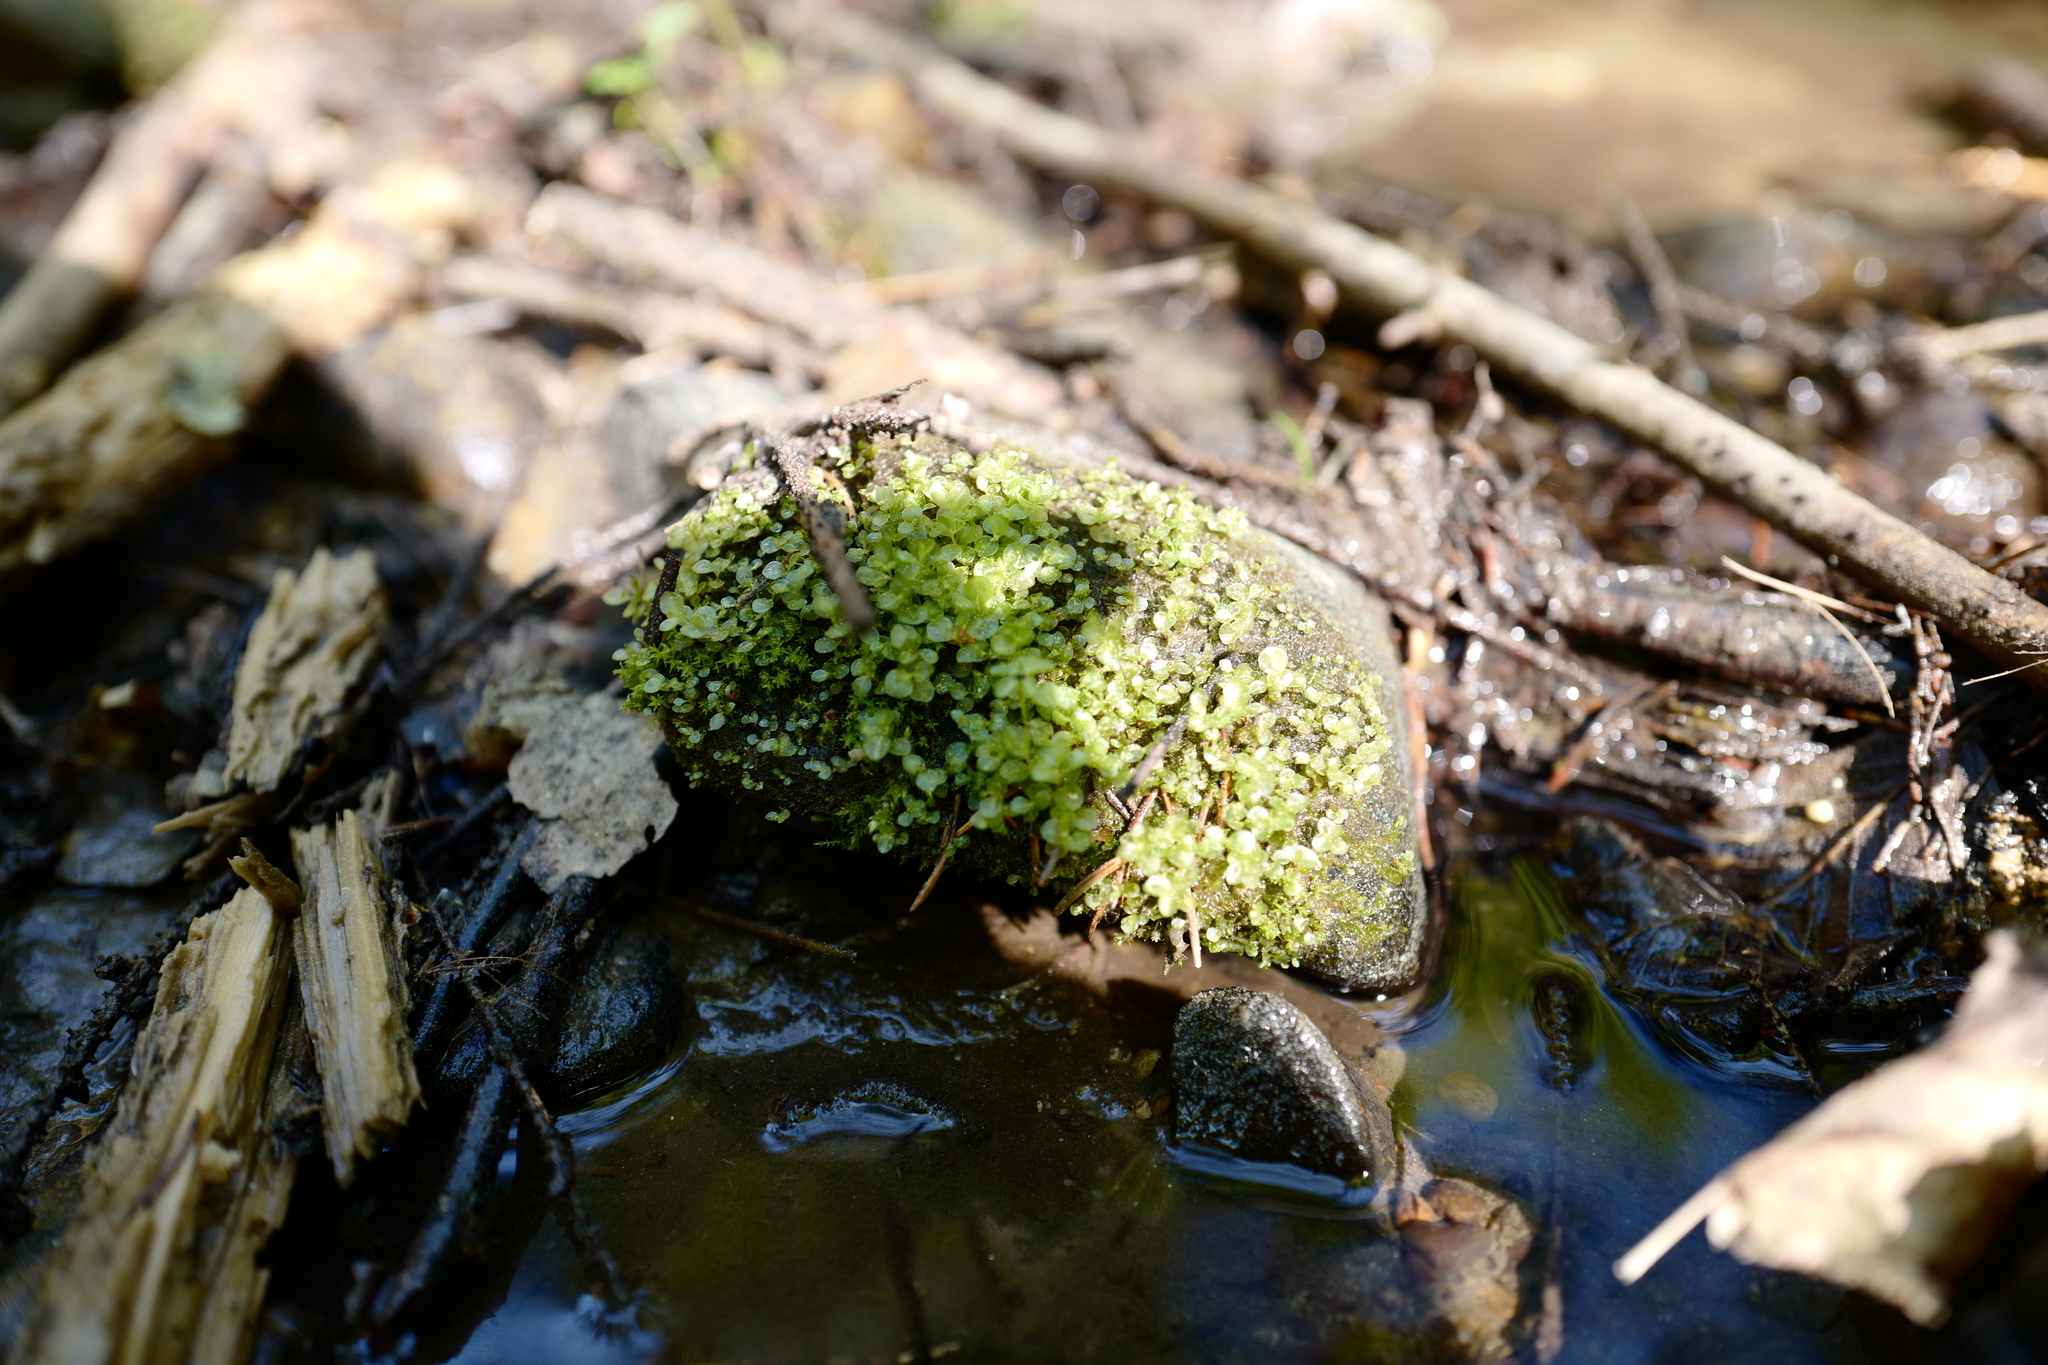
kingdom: Plantae
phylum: Bryophyta
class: Bryopsida
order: Bryales
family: Mniaceae
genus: Plagiomnium
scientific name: Plagiomnium cuspidatum
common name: Woodsy leafy moss
